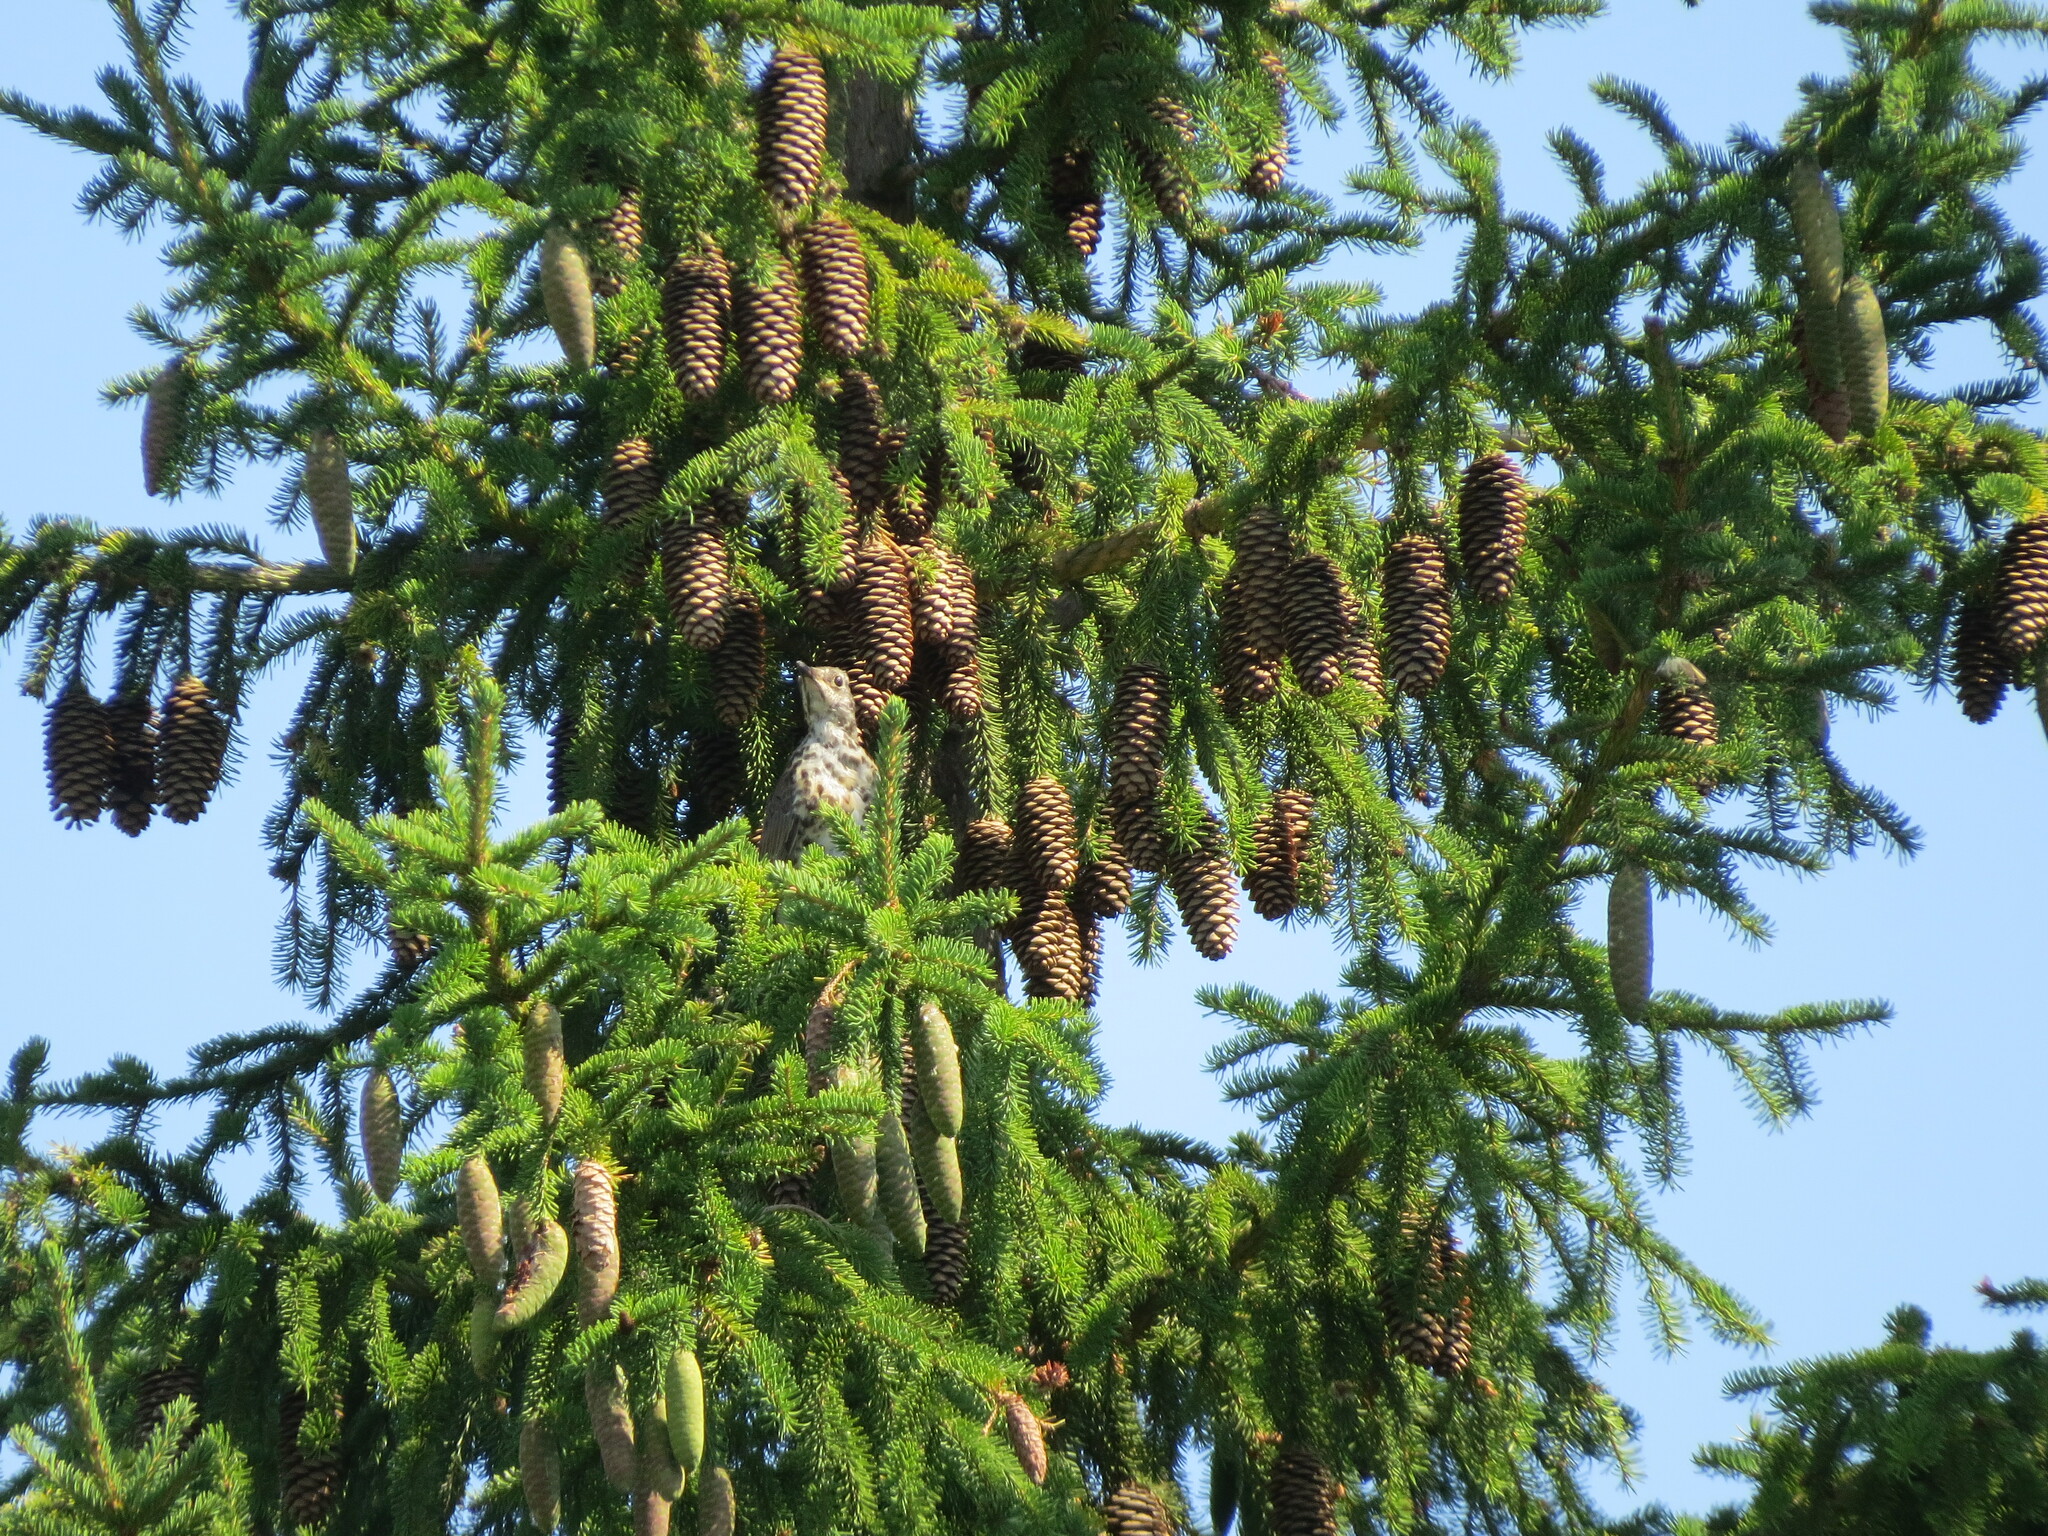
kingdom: Animalia
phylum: Chordata
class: Aves
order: Passeriformes
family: Turdidae
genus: Turdus
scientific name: Turdus pilaris
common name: Fieldfare
